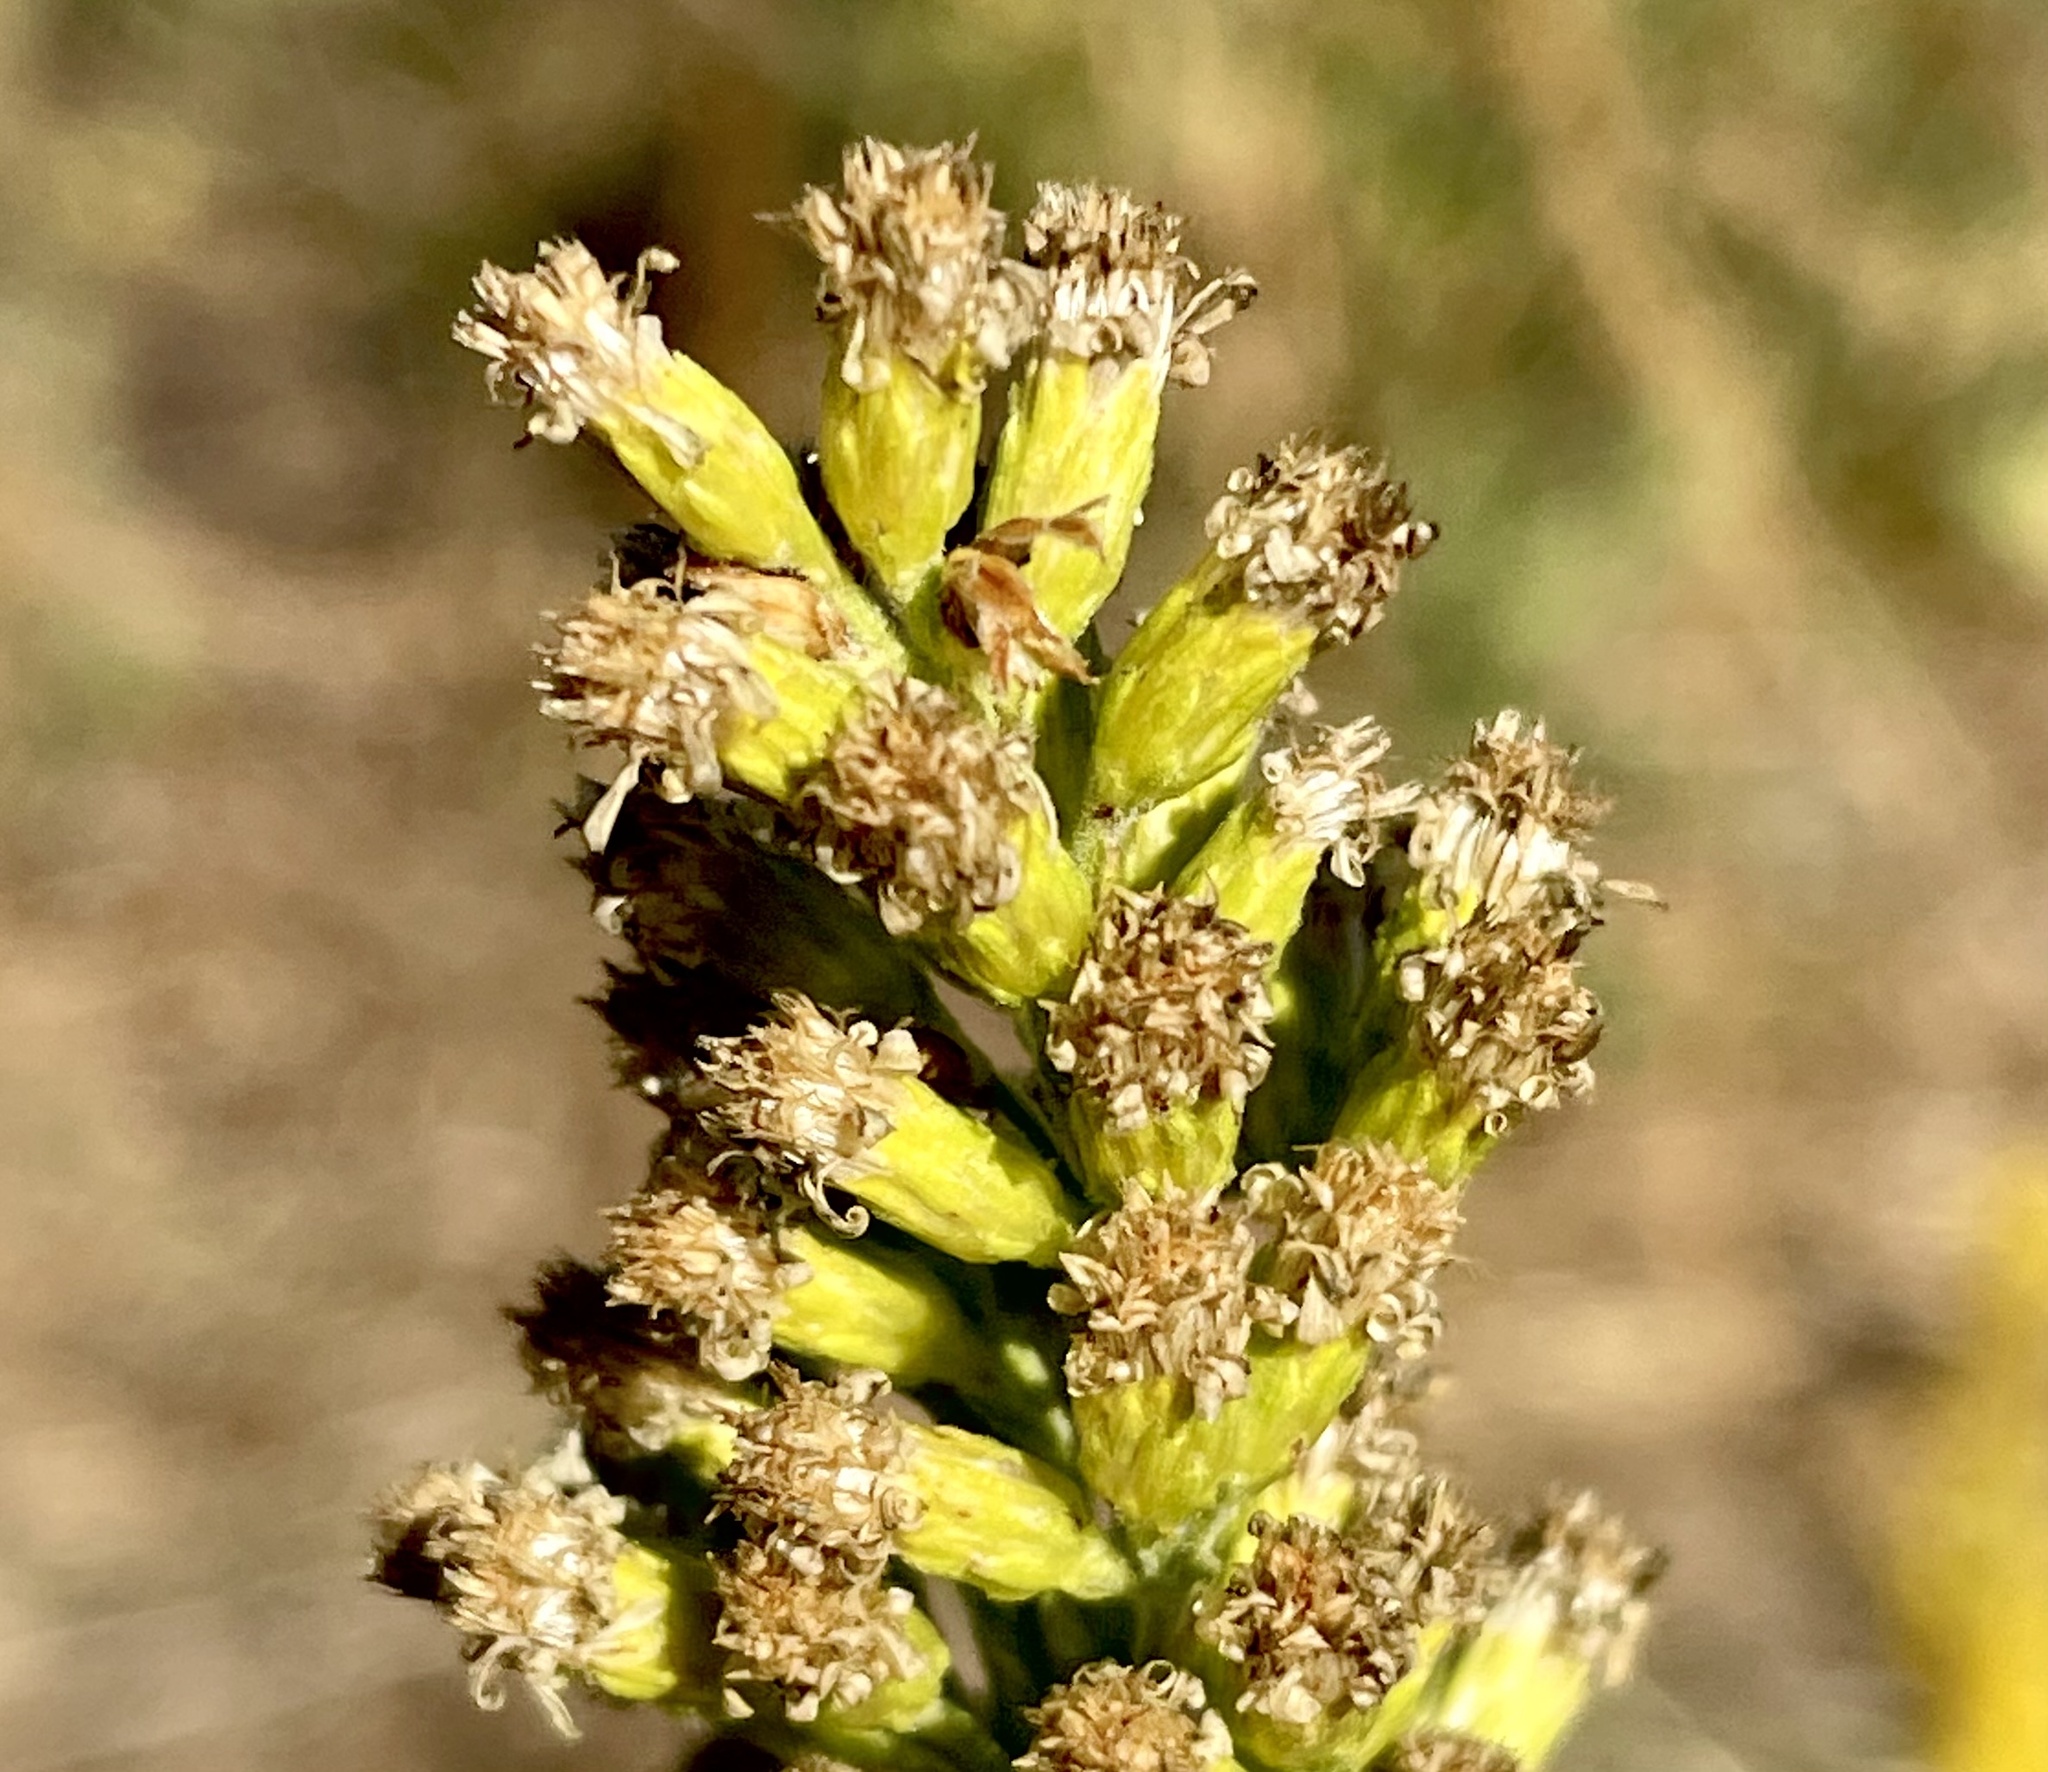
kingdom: Plantae
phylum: Tracheophyta
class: Magnoliopsida
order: Asterales
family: Asteraceae
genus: Solidago
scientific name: Solidago velutina
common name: Three-nerve goldenrod
